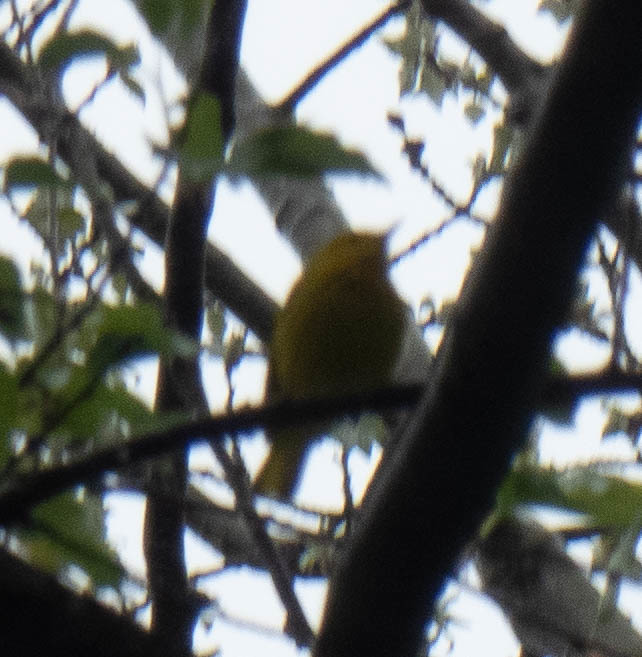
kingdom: Animalia
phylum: Chordata
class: Aves
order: Passeriformes
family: Parulidae
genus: Setophaga
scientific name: Setophaga petechia
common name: Yellow warbler
